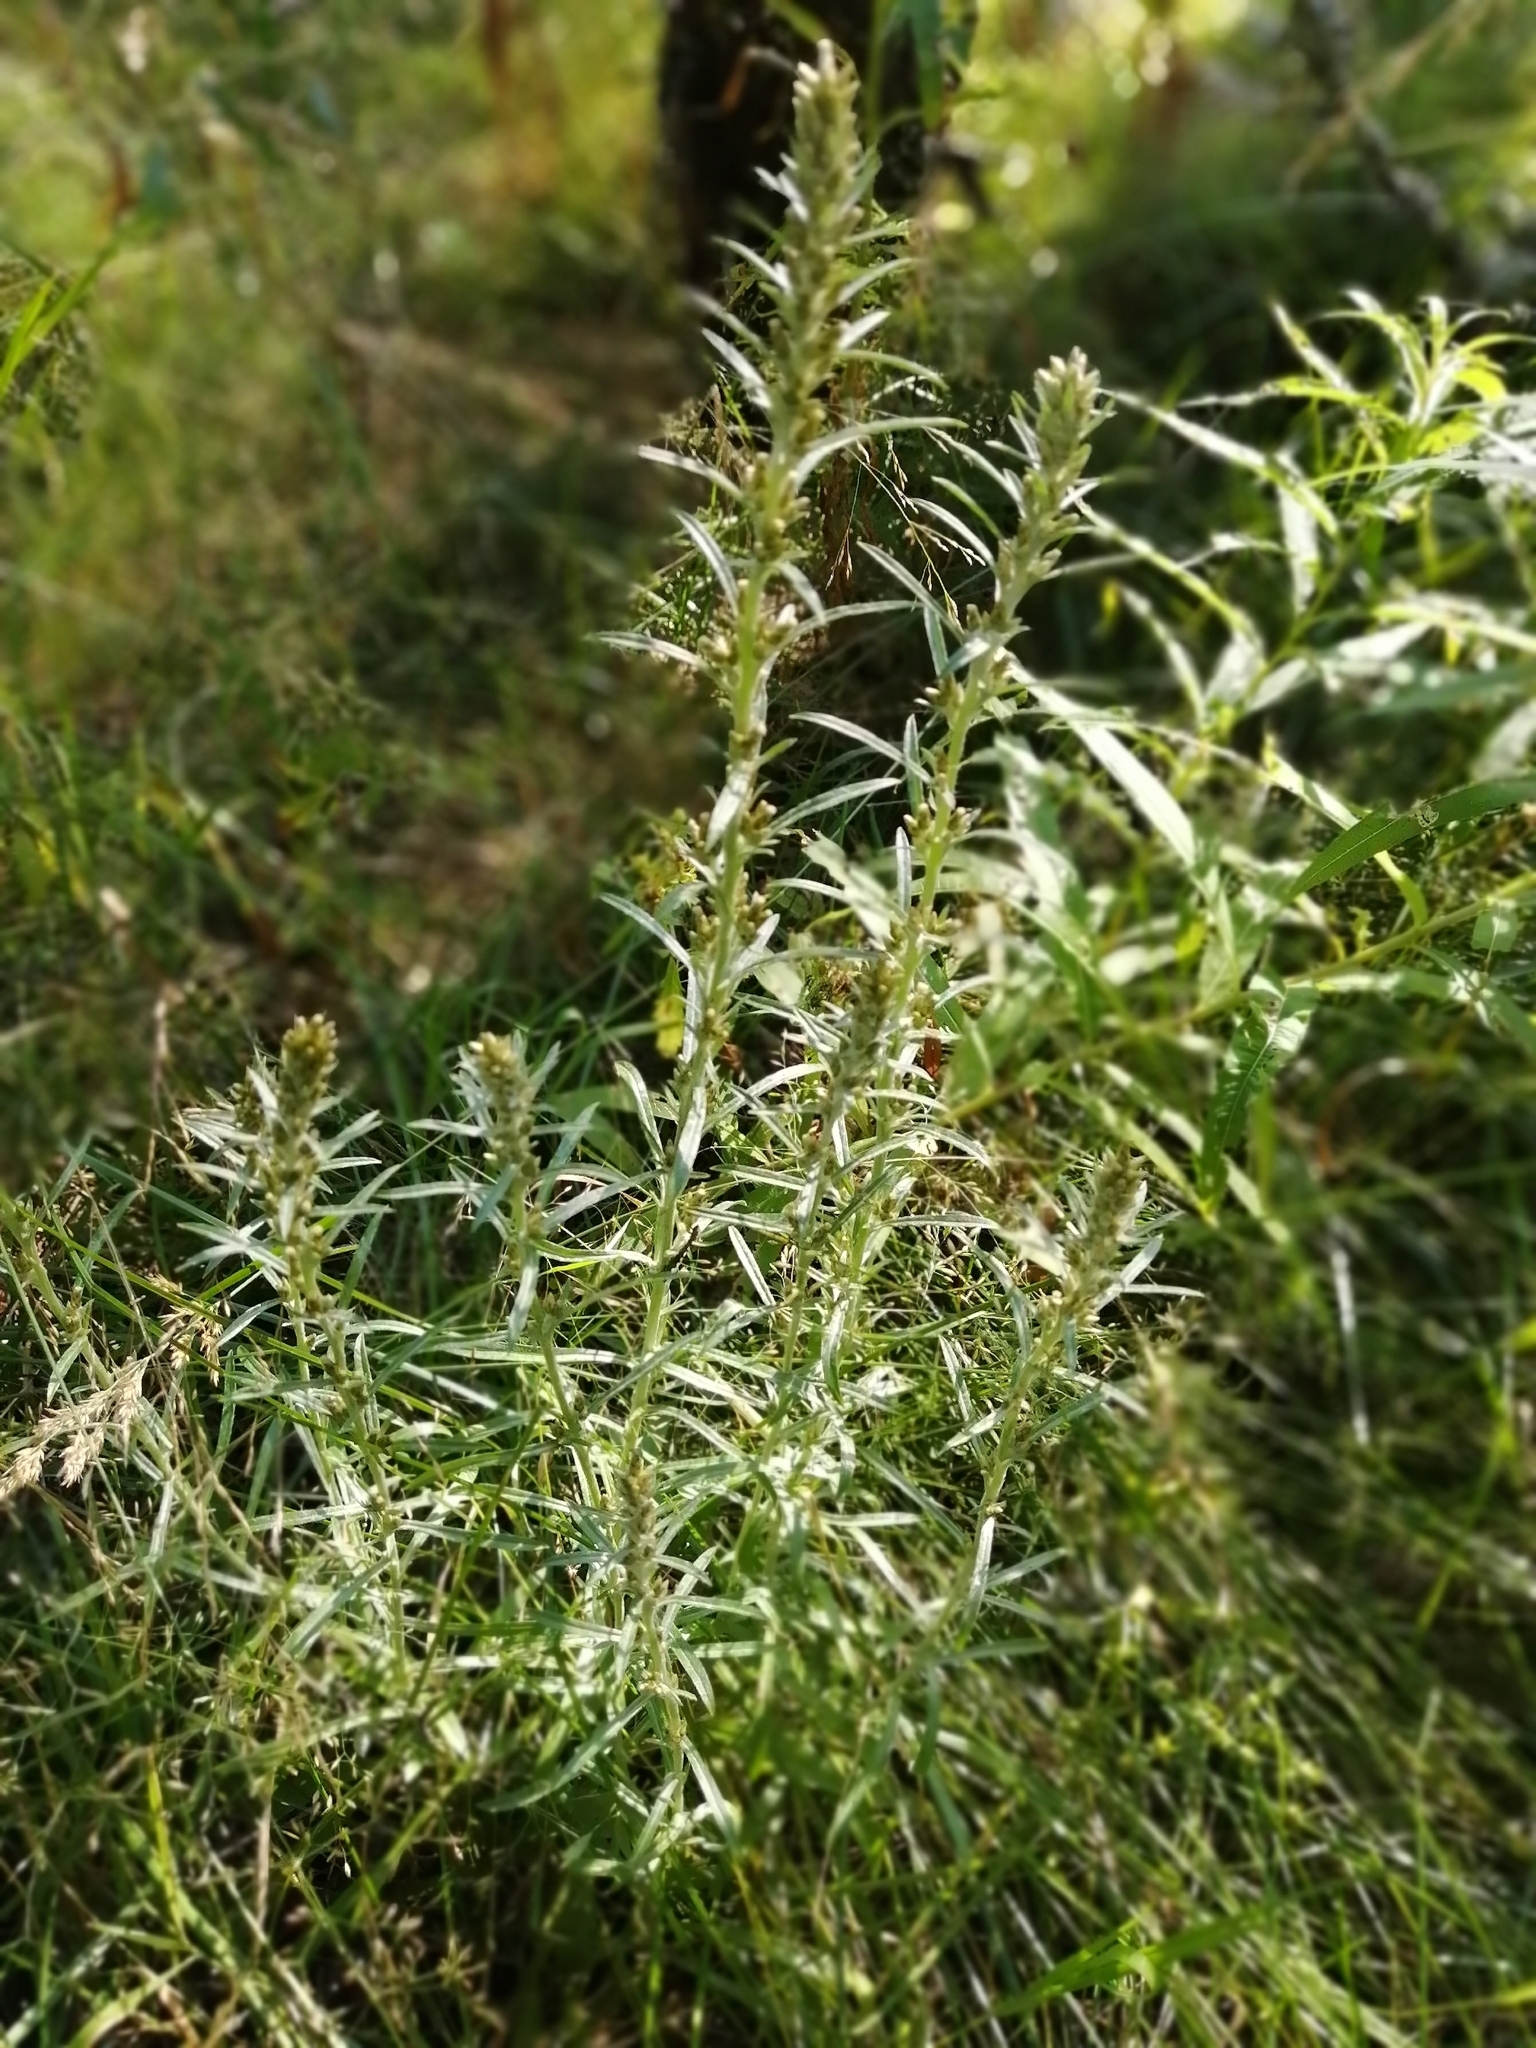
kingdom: Plantae
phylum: Tracheophyta
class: Magnoliopsida
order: Asterales
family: Asteraceae
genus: Omalotheca
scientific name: Omalotheca sylvatica
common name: Heath cudweed
